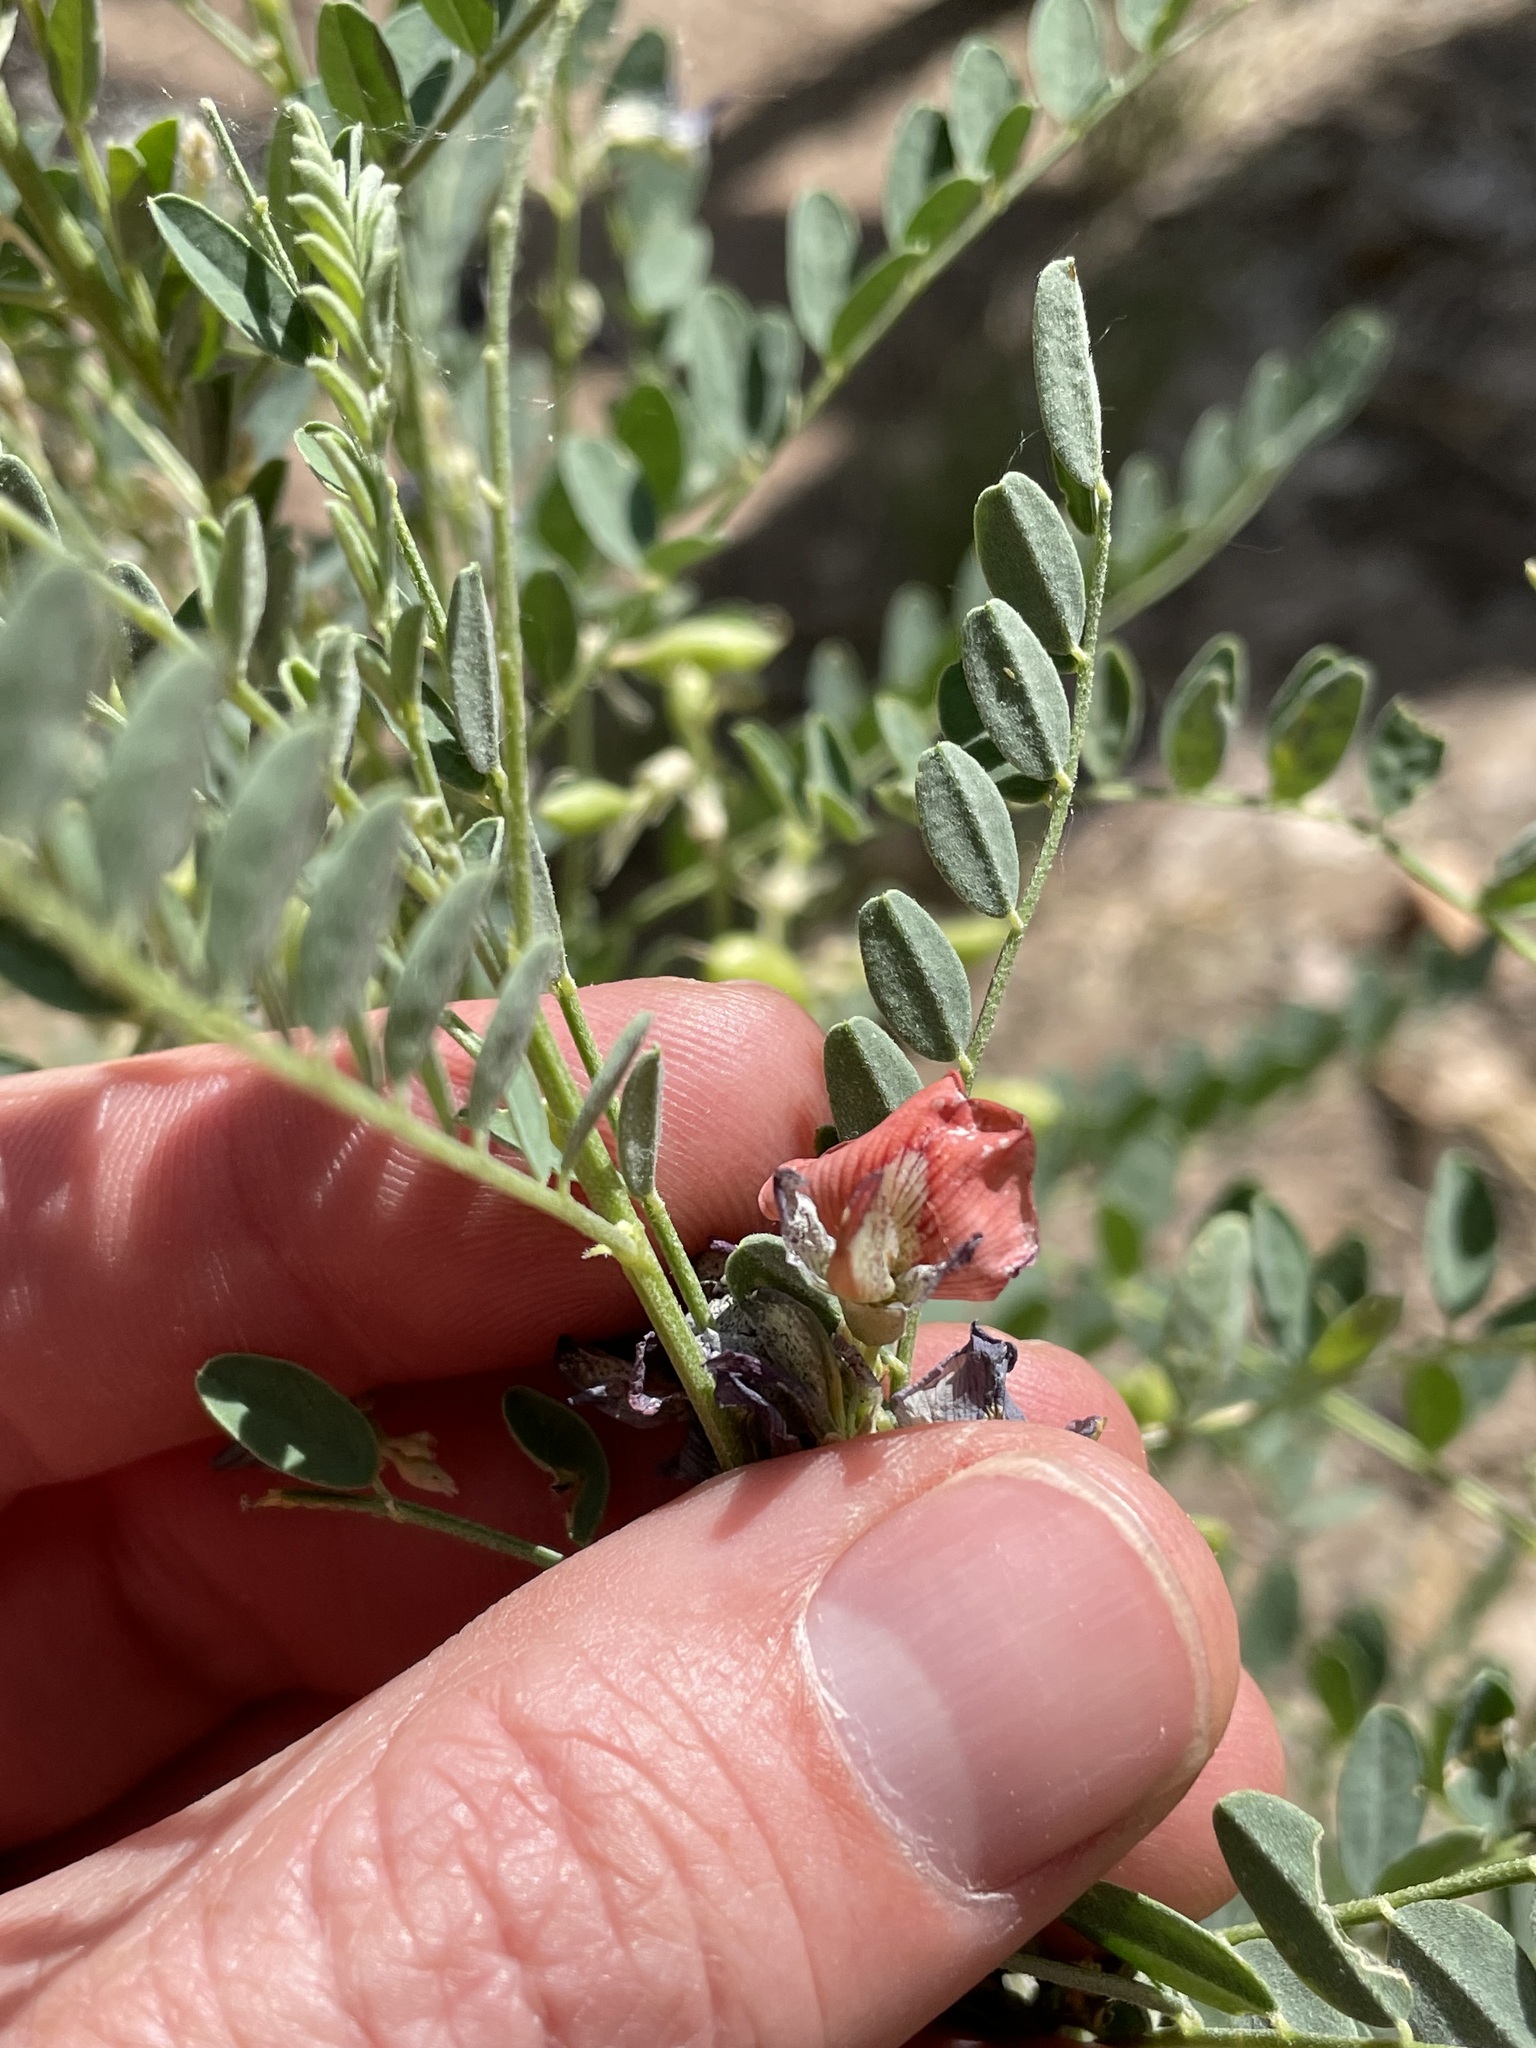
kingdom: Plantae
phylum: Tracheophyta
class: Magnoliopsida
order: Fabales
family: Fabaceae
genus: Sphaerophysa
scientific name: Sphaerophysa salsula
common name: Alkali swainsonpea
